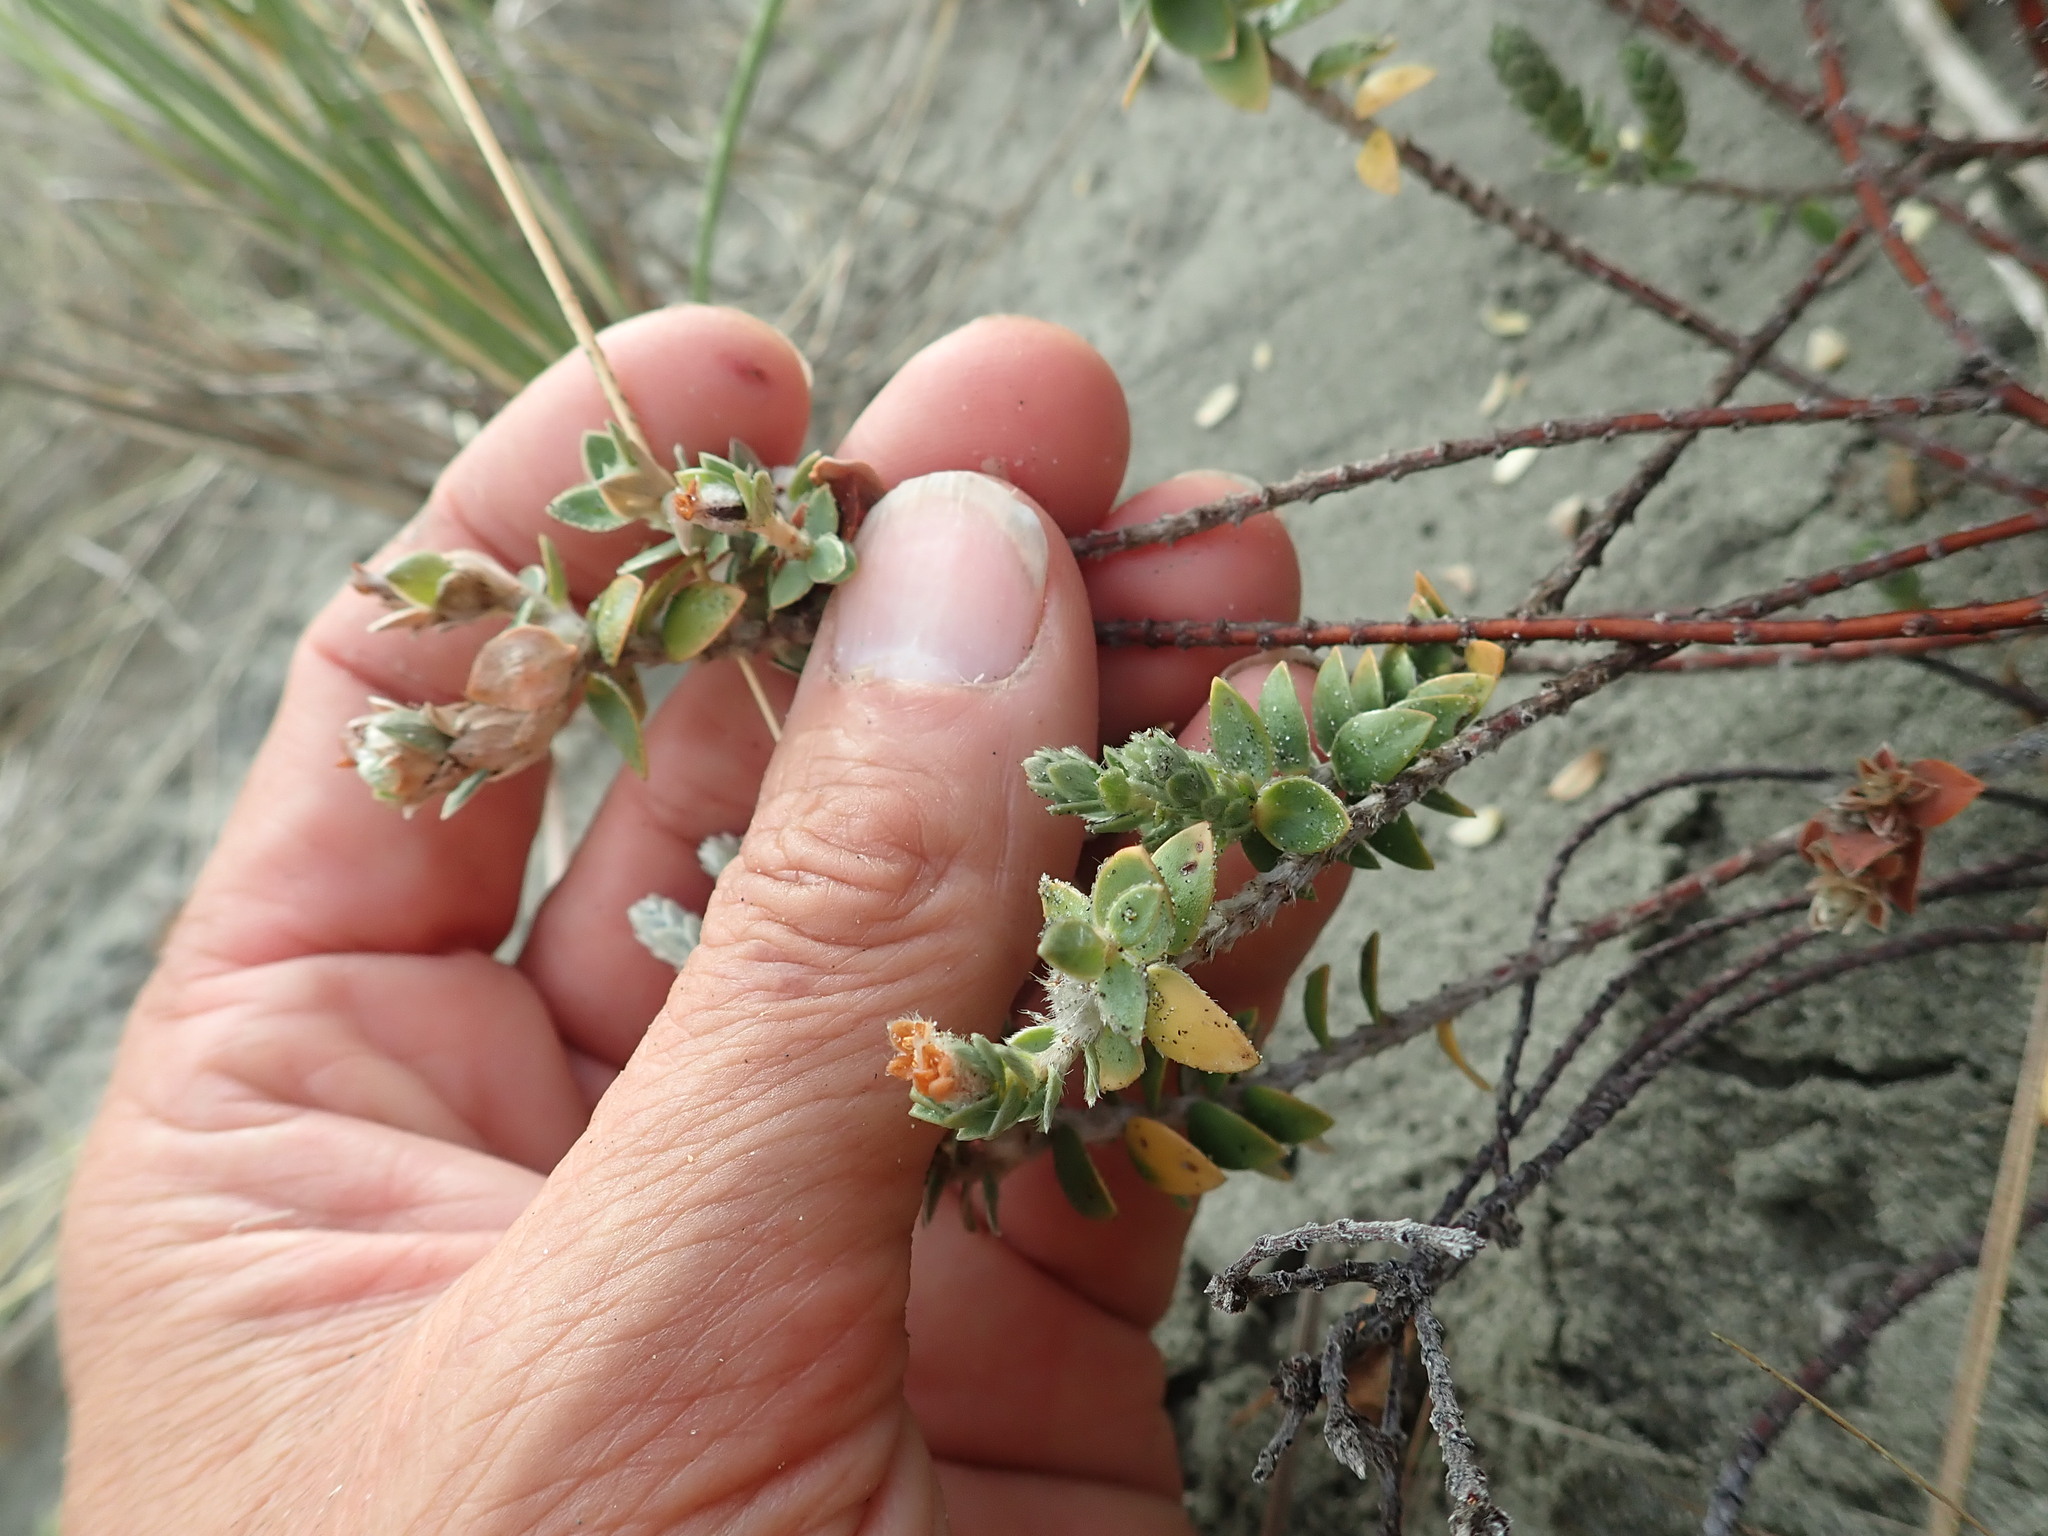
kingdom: Plantae
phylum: Tracheophyta
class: Magnoliopsida
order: Malvales
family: Thymelaeaceae
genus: Pimelea
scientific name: Pimelea villosa
